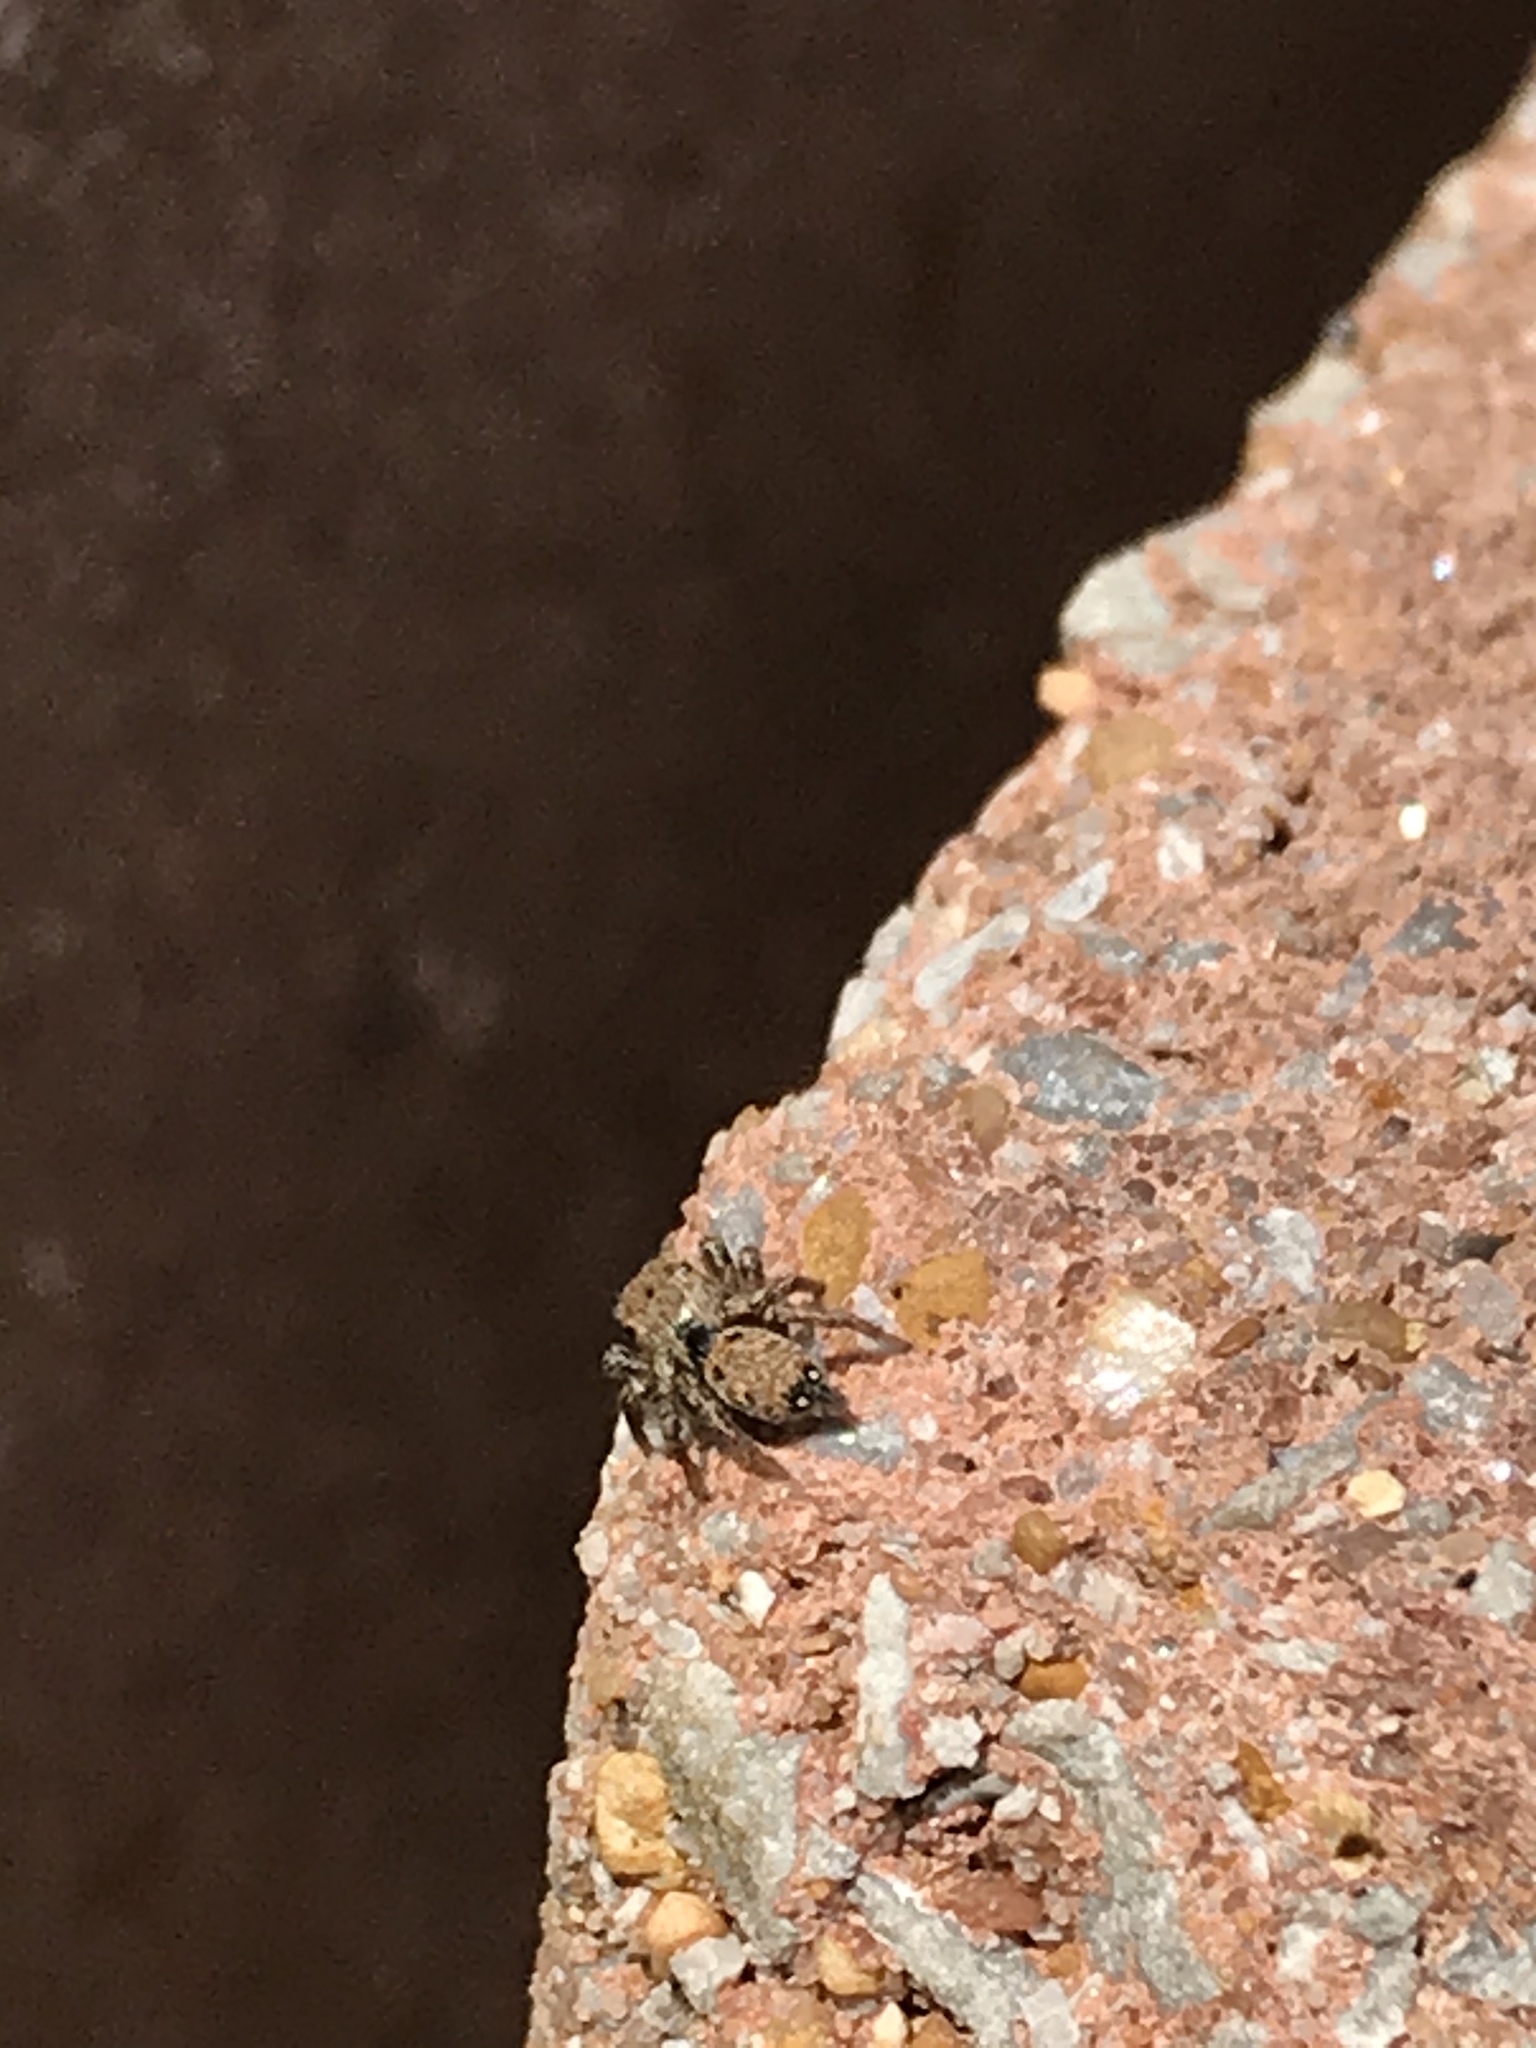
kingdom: Animalia
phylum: Arthropoda
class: Arachnida
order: Araneae
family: Salticidae
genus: Habronattus
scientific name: Habronattus coecatus
